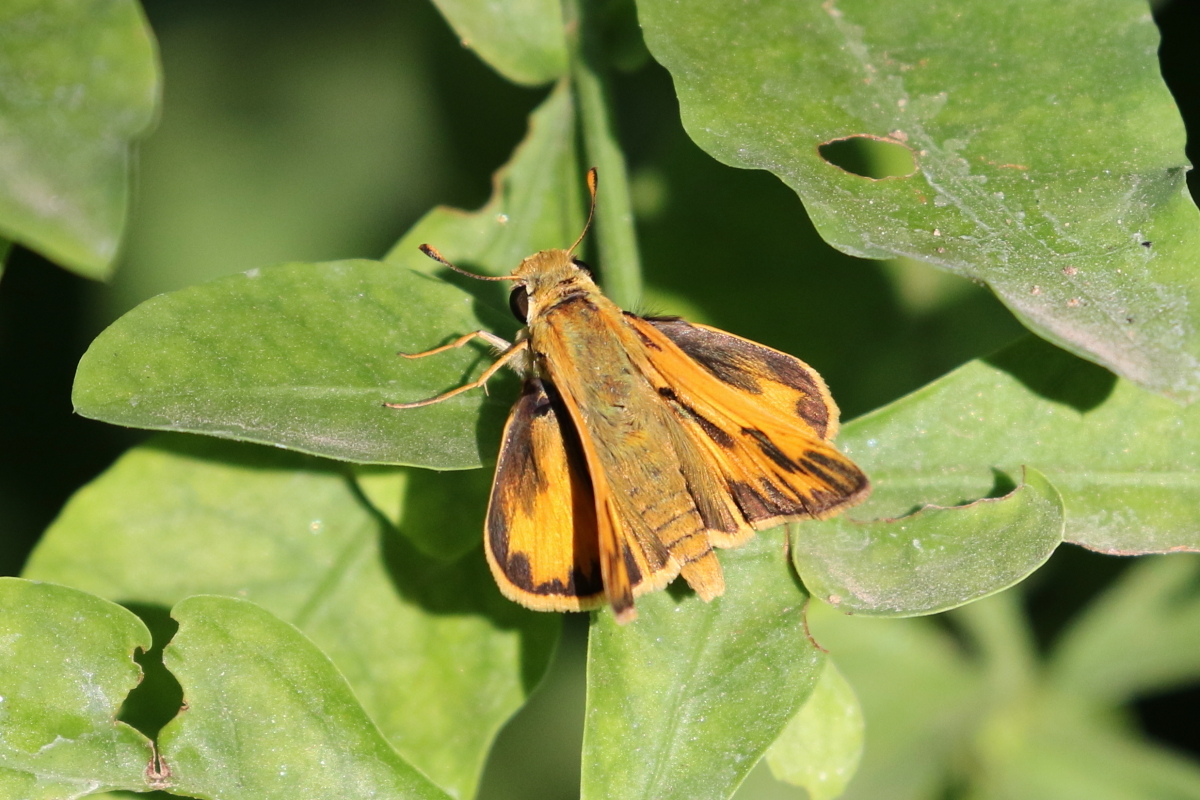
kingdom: Animalia
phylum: Arthropoda
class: Insecta
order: Lepidoptera
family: Hesperiidae
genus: Hylephila
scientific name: Hylephila phyleus
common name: Fiery skipper
